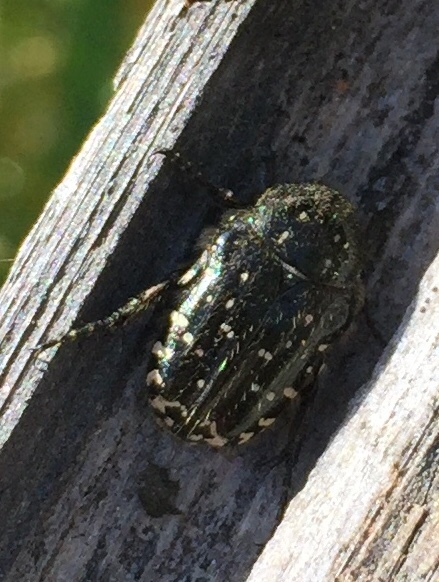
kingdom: Animalia
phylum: Arthropoda
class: Insecta
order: Coleoptera
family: Scarabaeidae
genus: Oxythyrea
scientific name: Oxythyrea funesta
